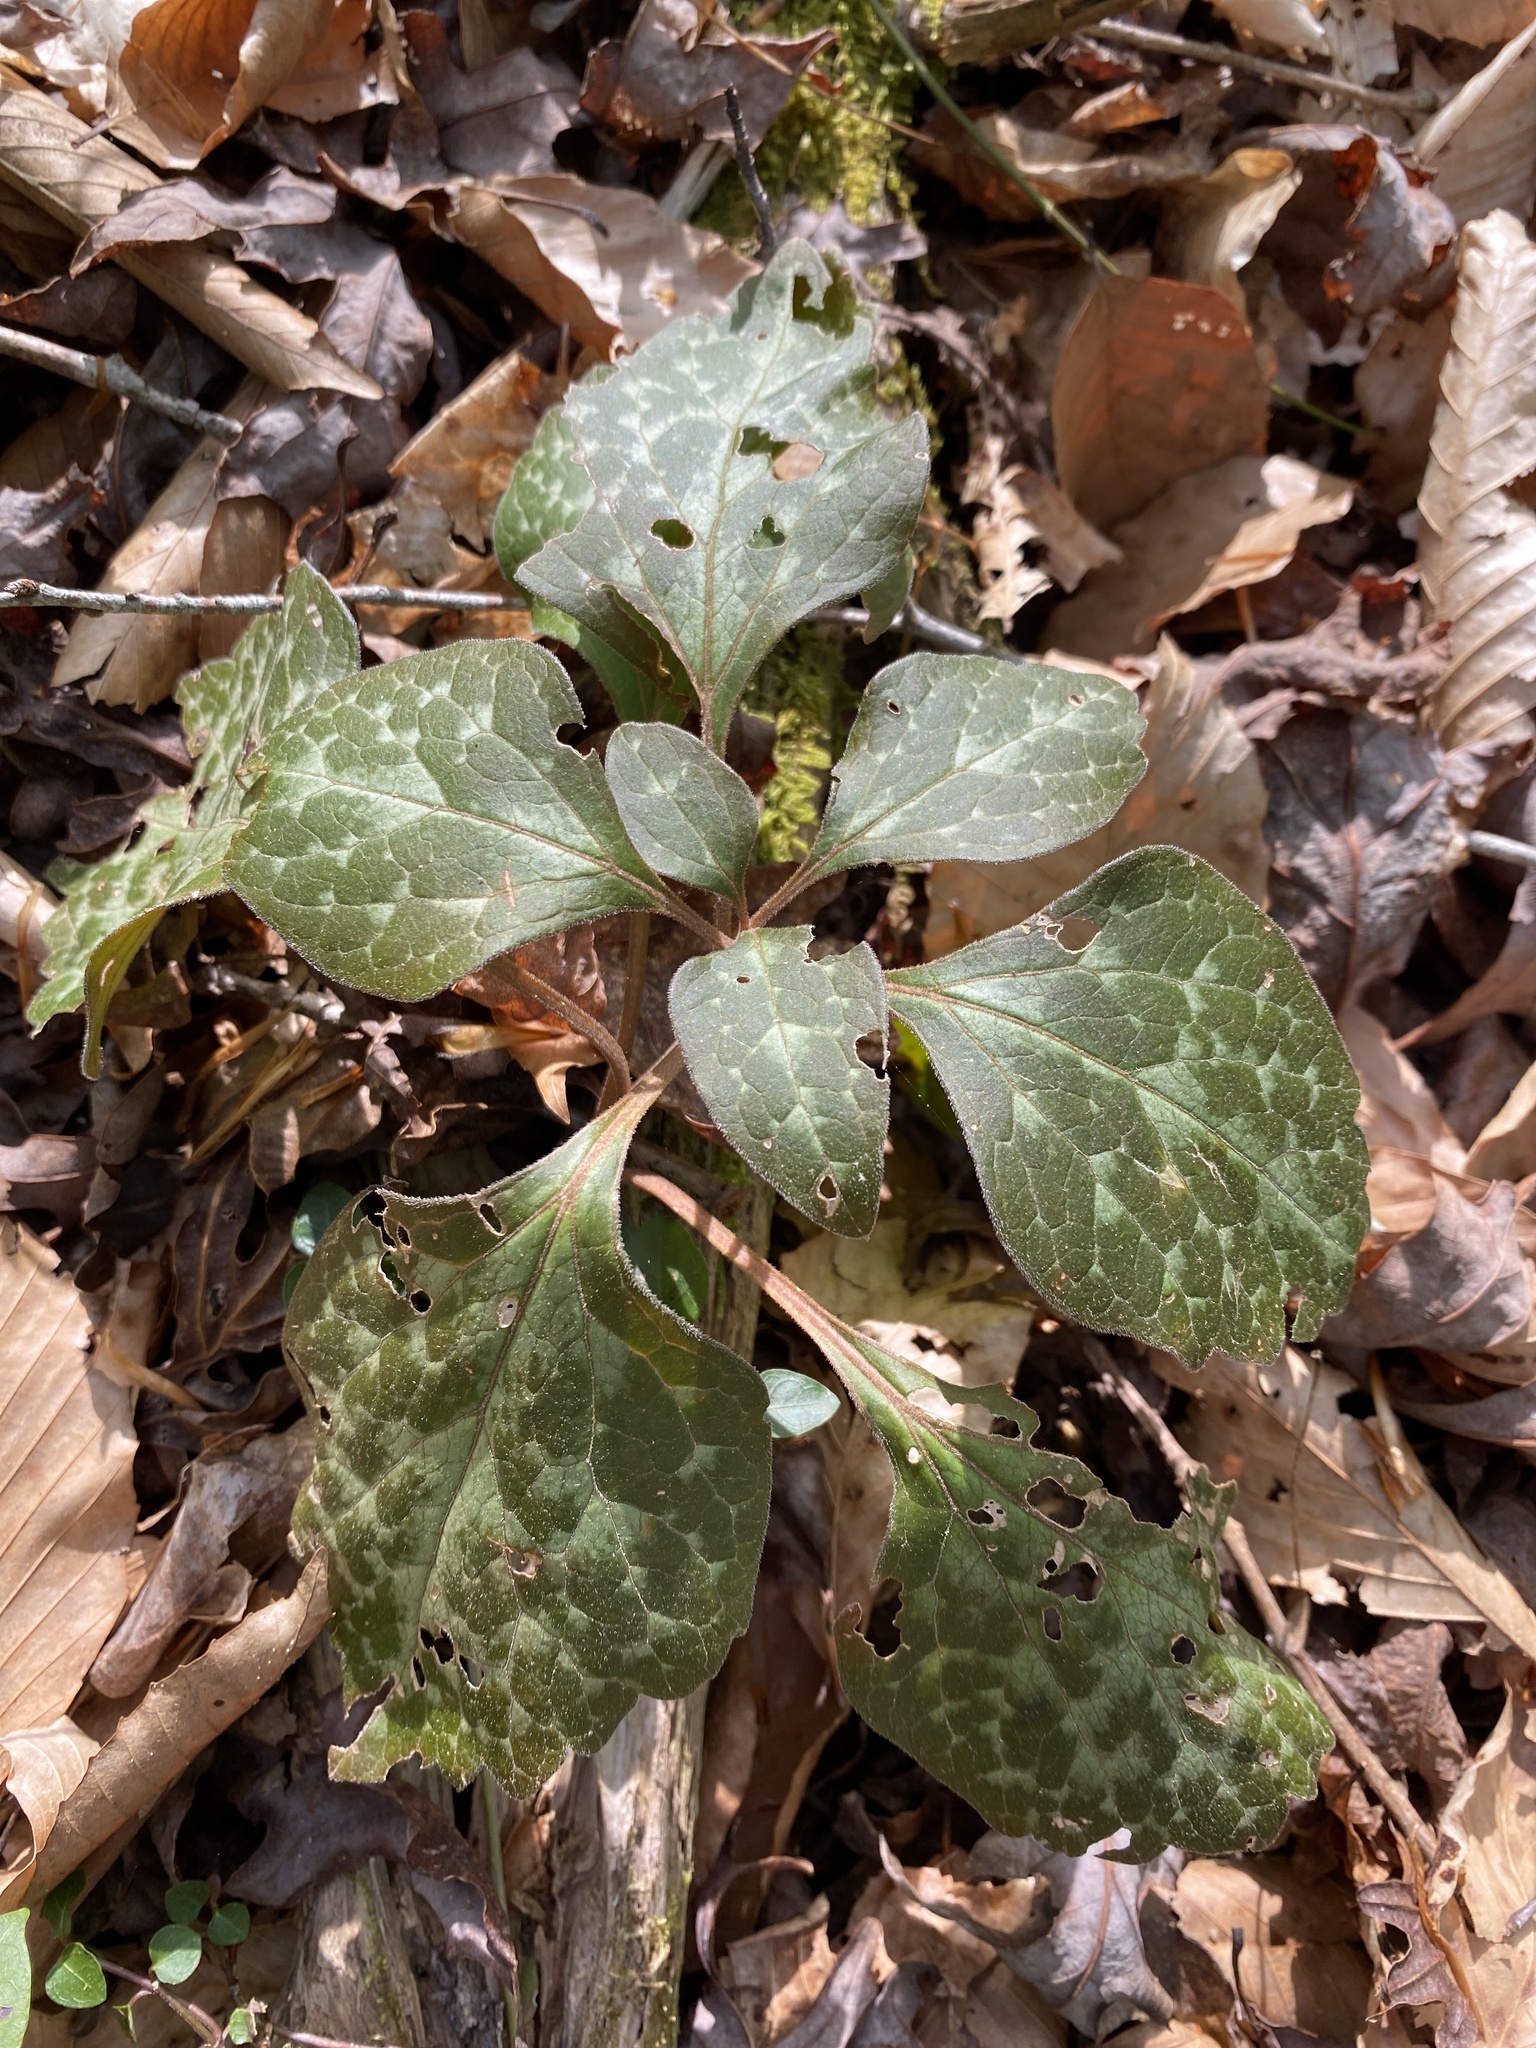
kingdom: Plantae
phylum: Tracheophyta
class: Magnoliopsida
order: Buxales
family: Buxaceae
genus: Pachysandra
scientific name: Pachysandra procumbens
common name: Mountain-spurge
